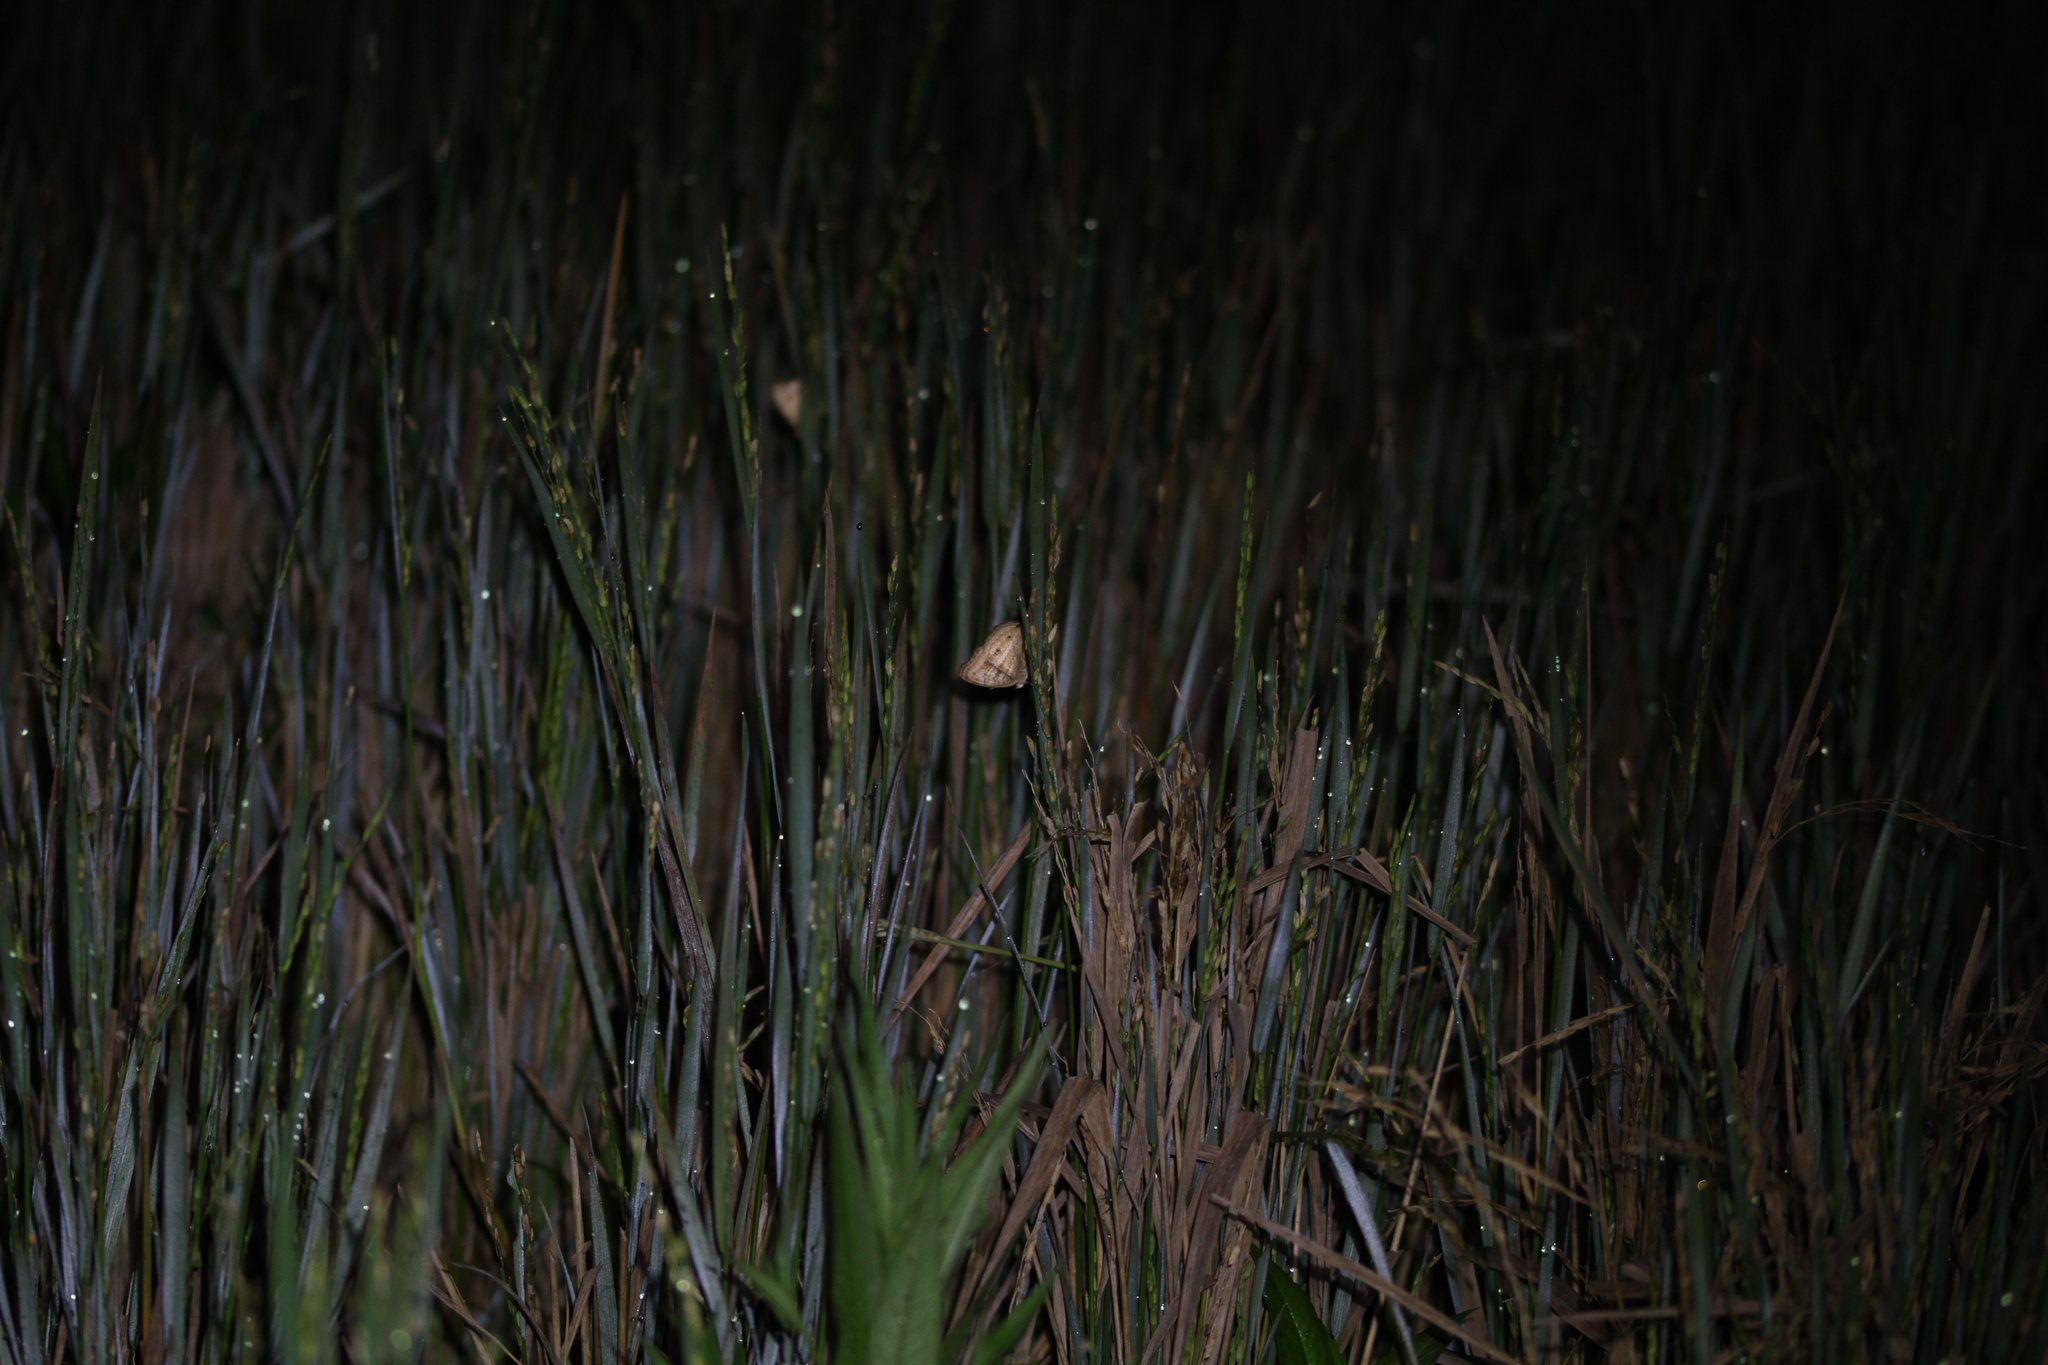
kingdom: Animalia
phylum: Arthropoda
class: Insecta
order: Lepidoptera
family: Nymphalidae
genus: Junonia
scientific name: Junonia almana
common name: Peacock pansy
